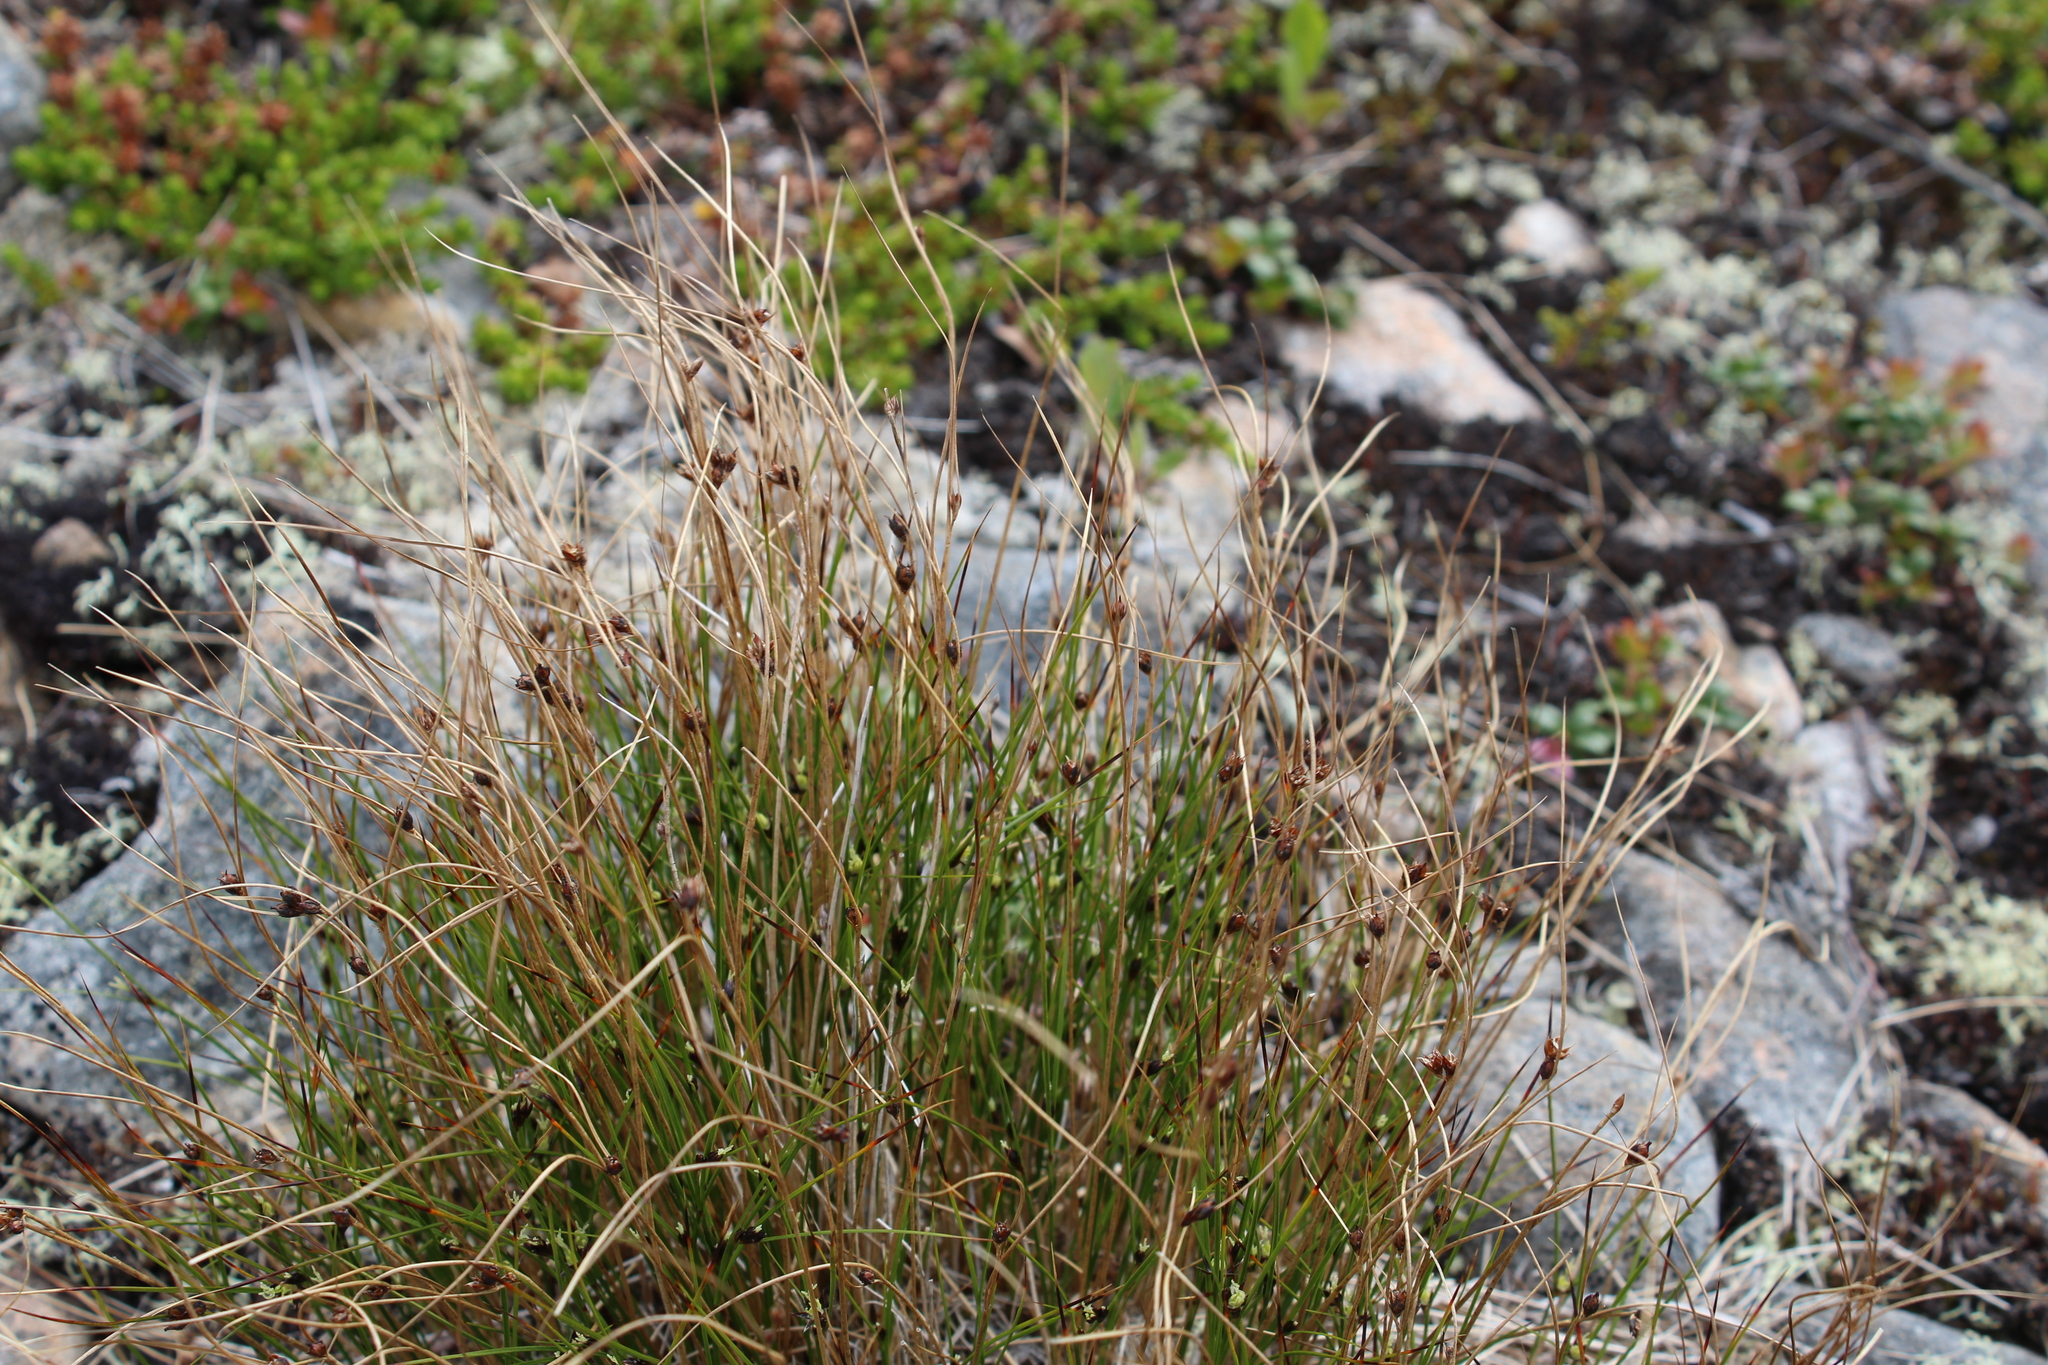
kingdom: Plantae
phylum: Tracheophyta
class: Liliopsida
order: Poales
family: Juncaceae
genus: Oreojuncus
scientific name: Oreojuncus trifidus
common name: Highland rush
